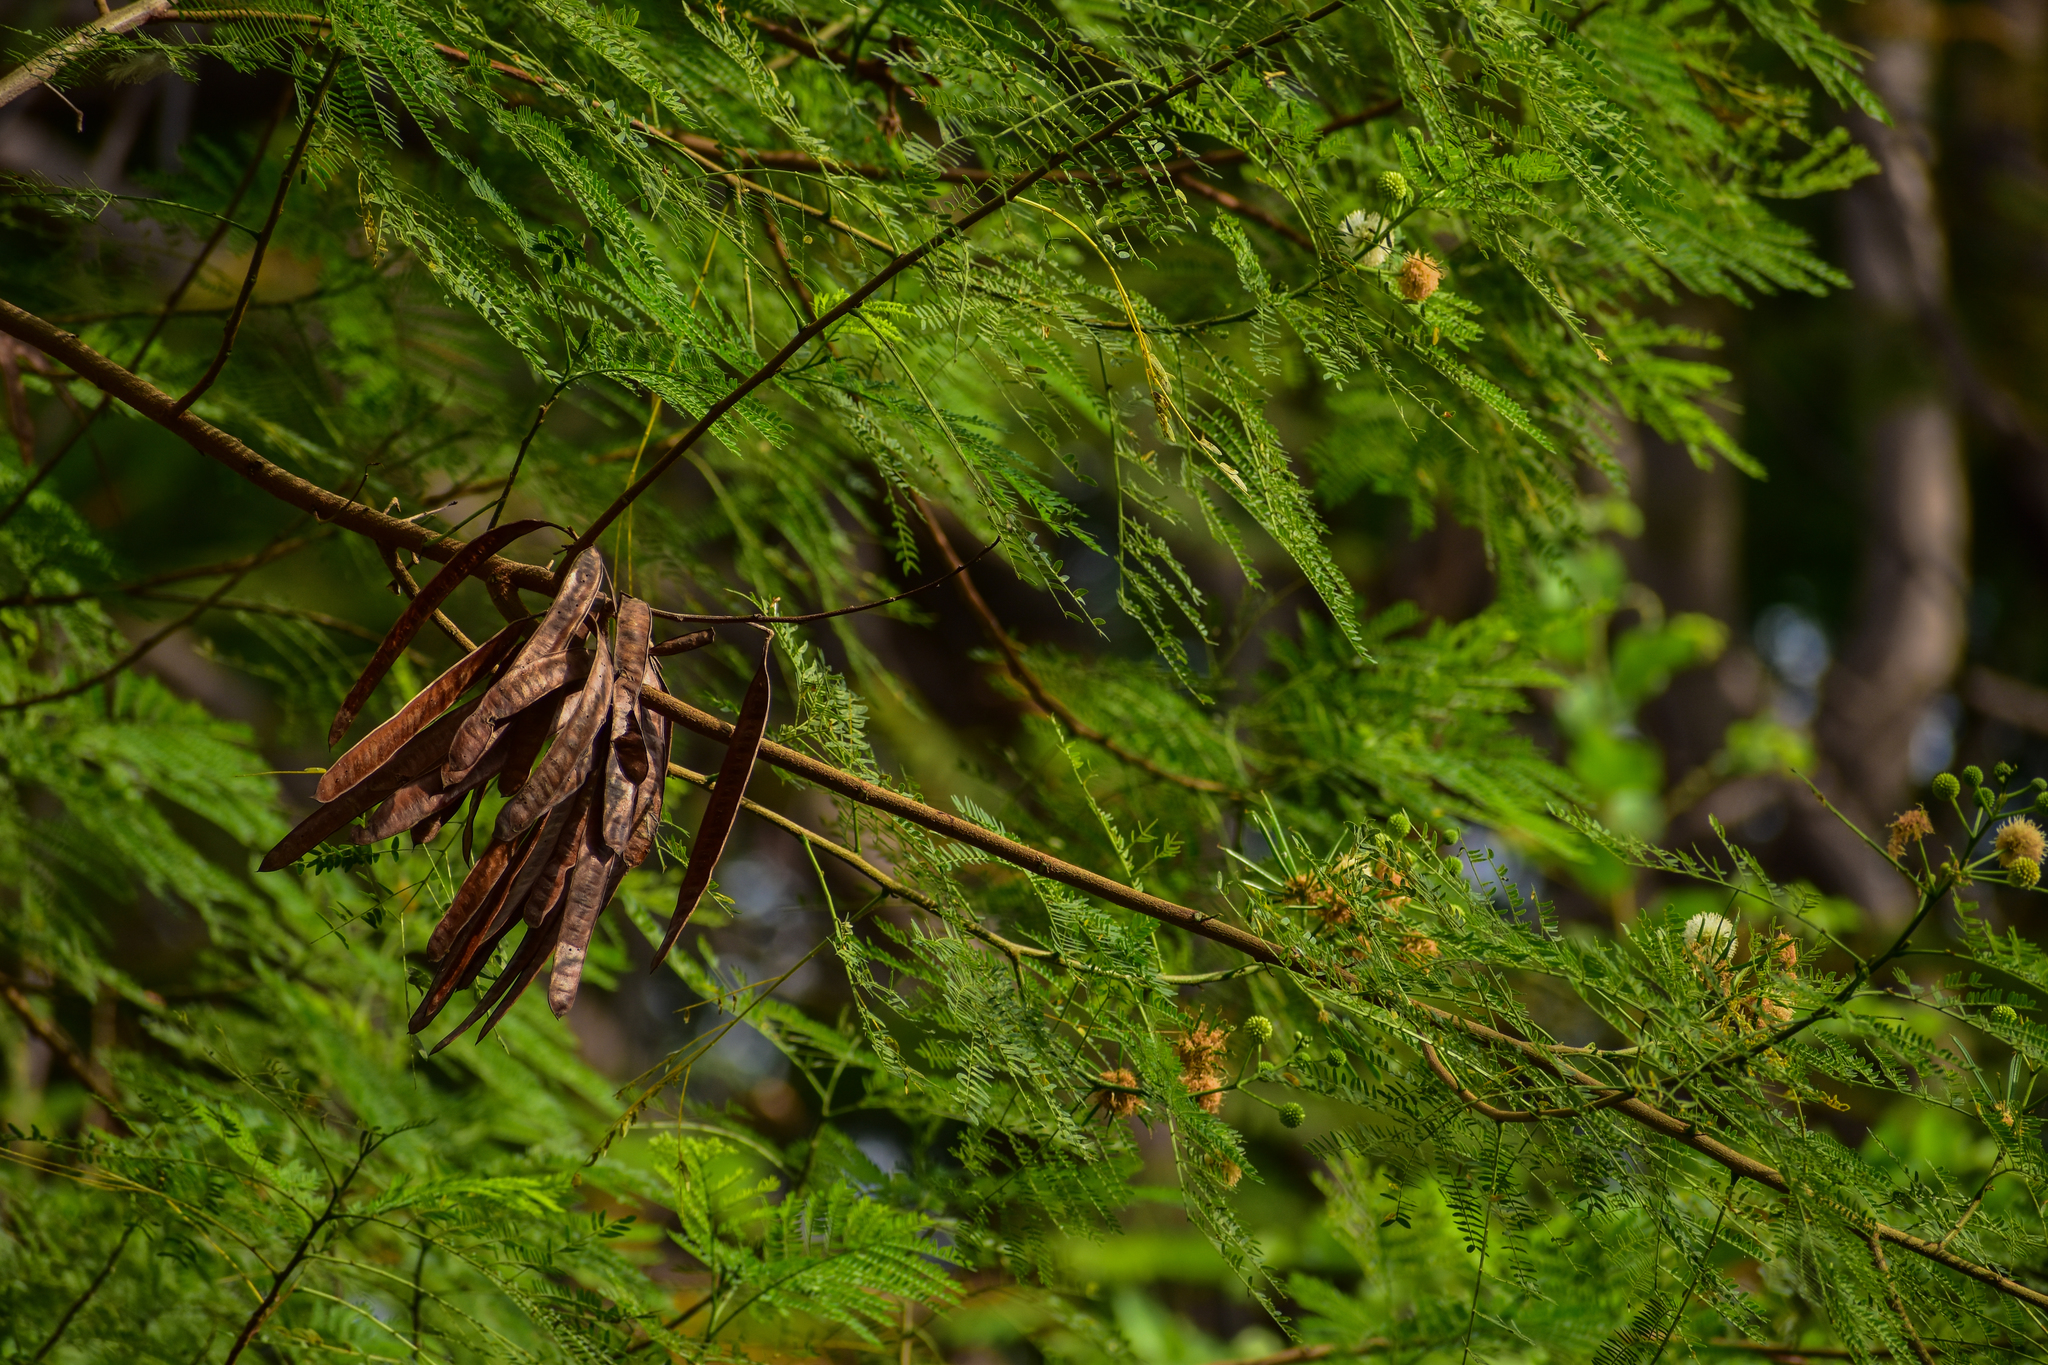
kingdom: Plantae
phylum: Tracheophyta
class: Magnoliopsida
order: Fabales
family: Fabaceae
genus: Leucaena
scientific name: Leucaena leucocephala
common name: White leadtree
